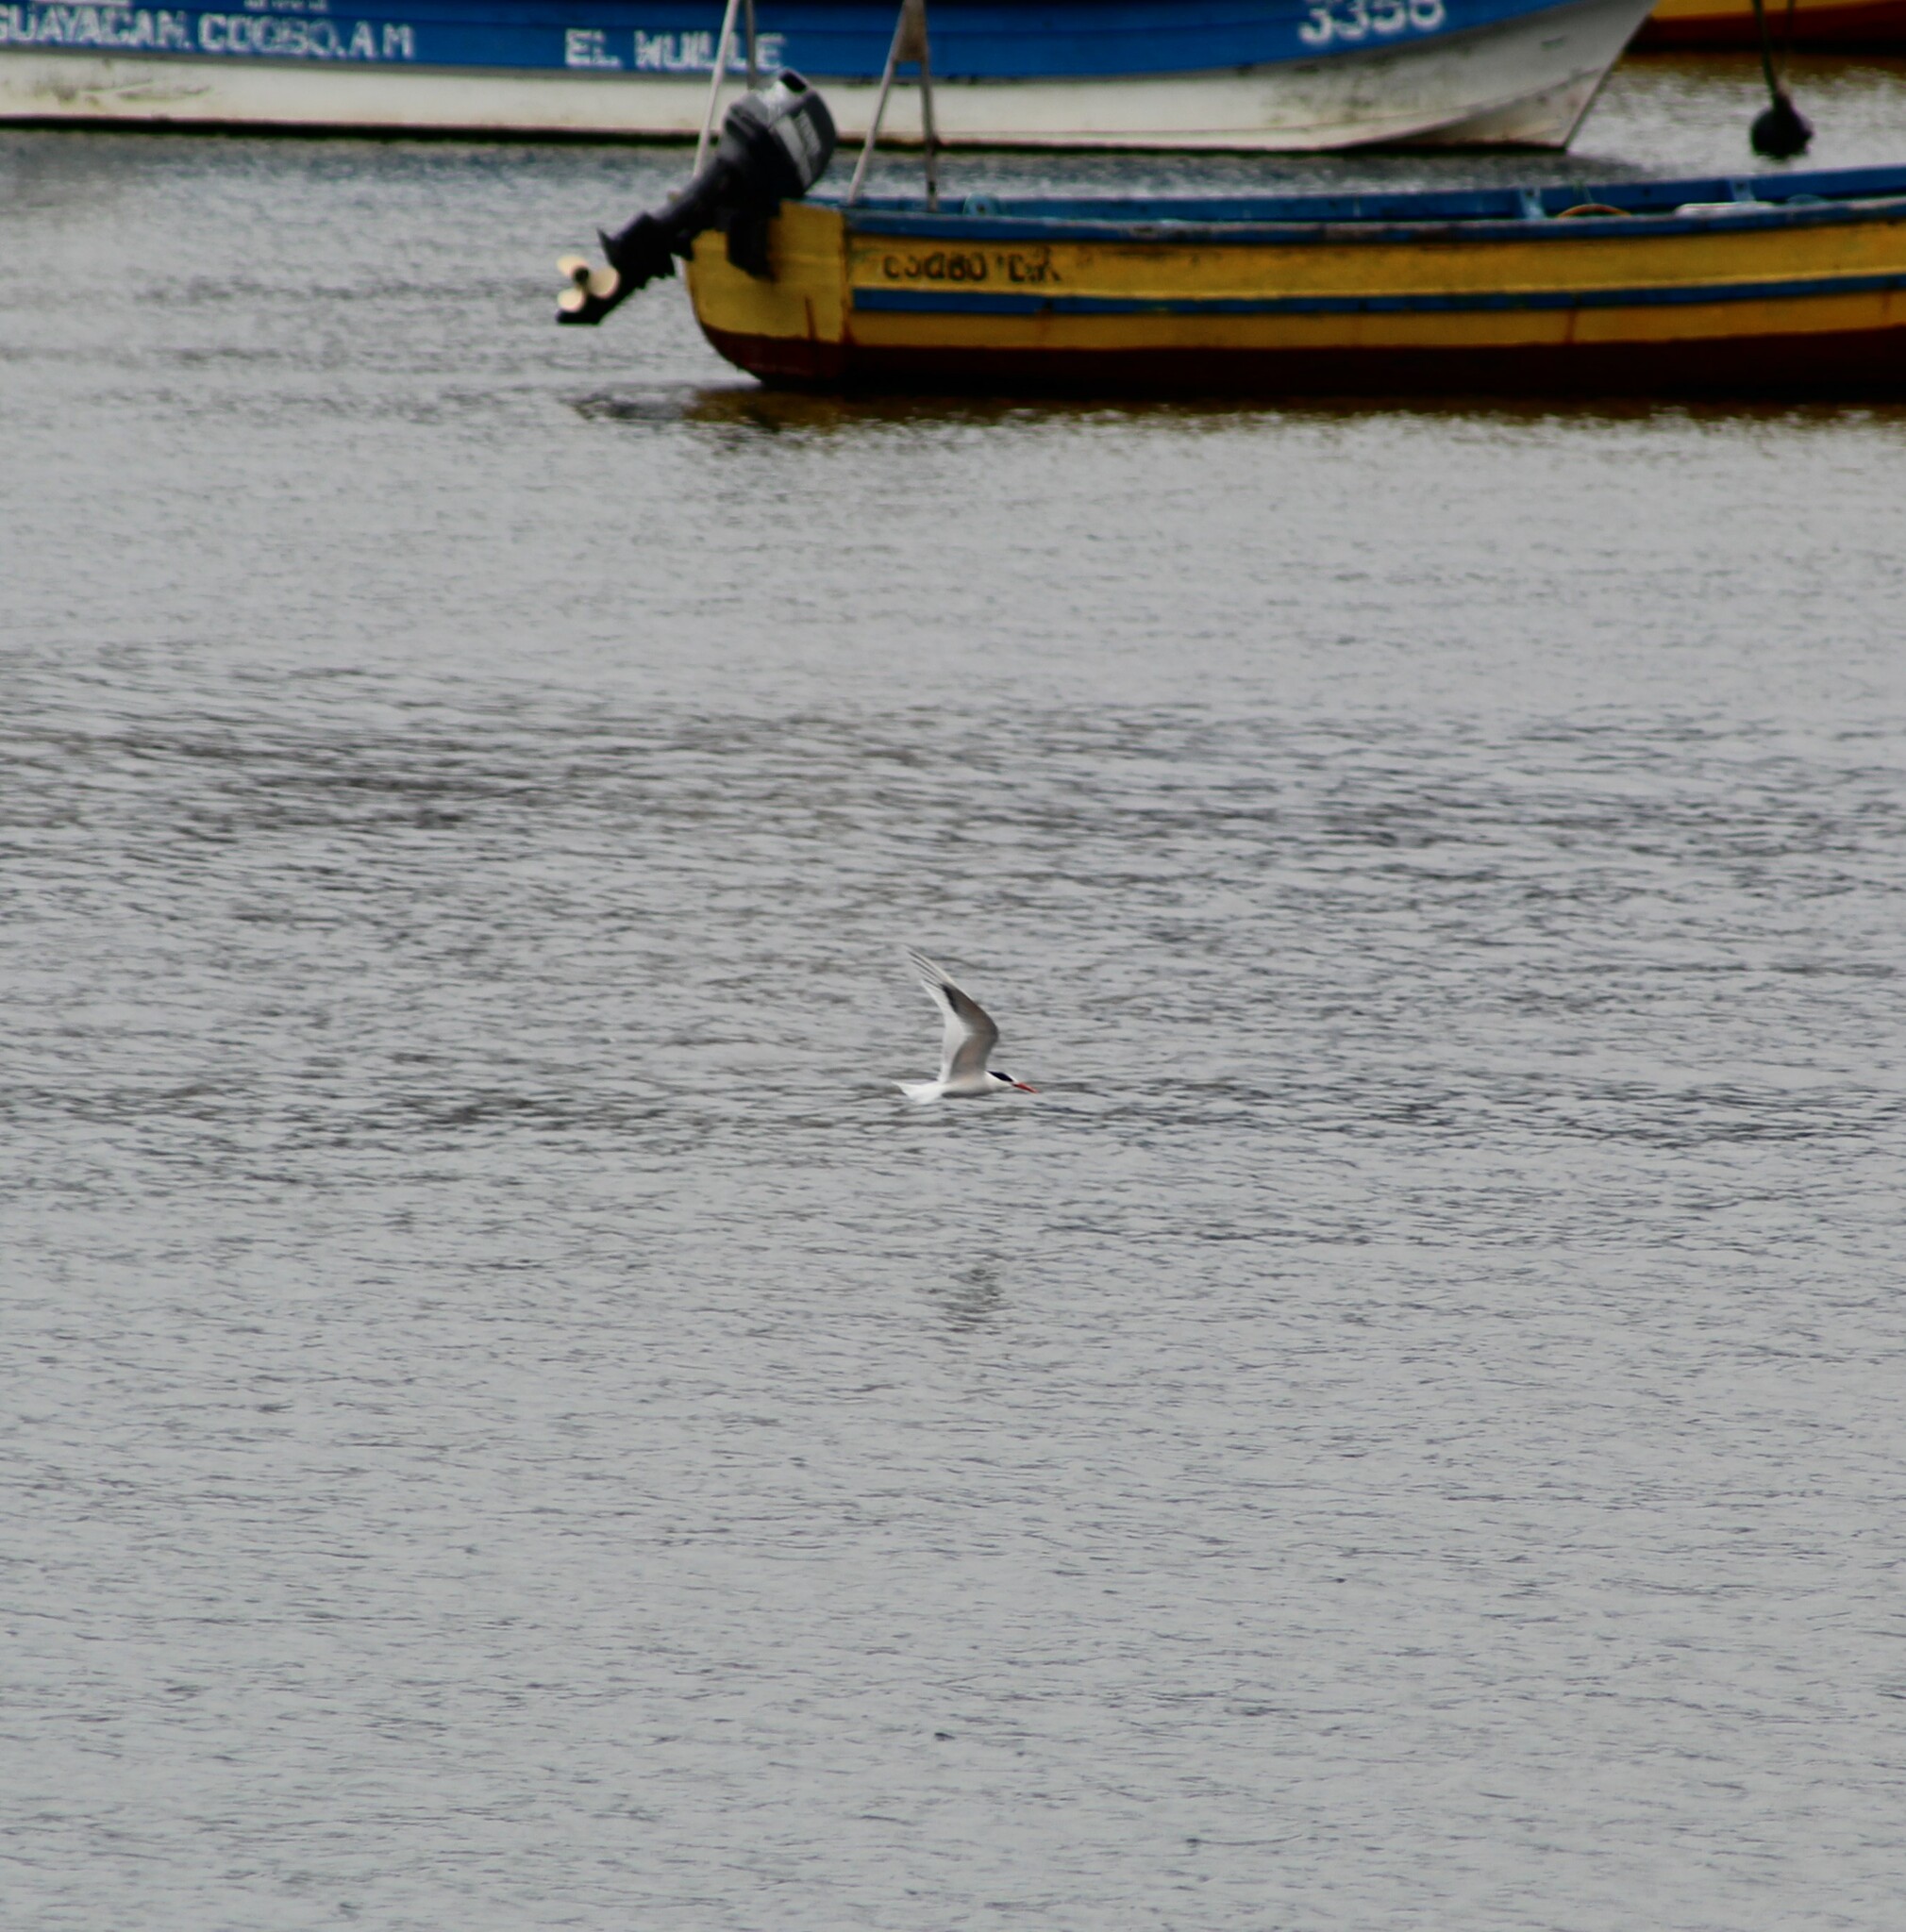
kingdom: Animalia
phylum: Chordata
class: Aves
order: Charadriiformes
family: Laridae
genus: Sterna
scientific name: Sterna hirundinacea
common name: South american tern
